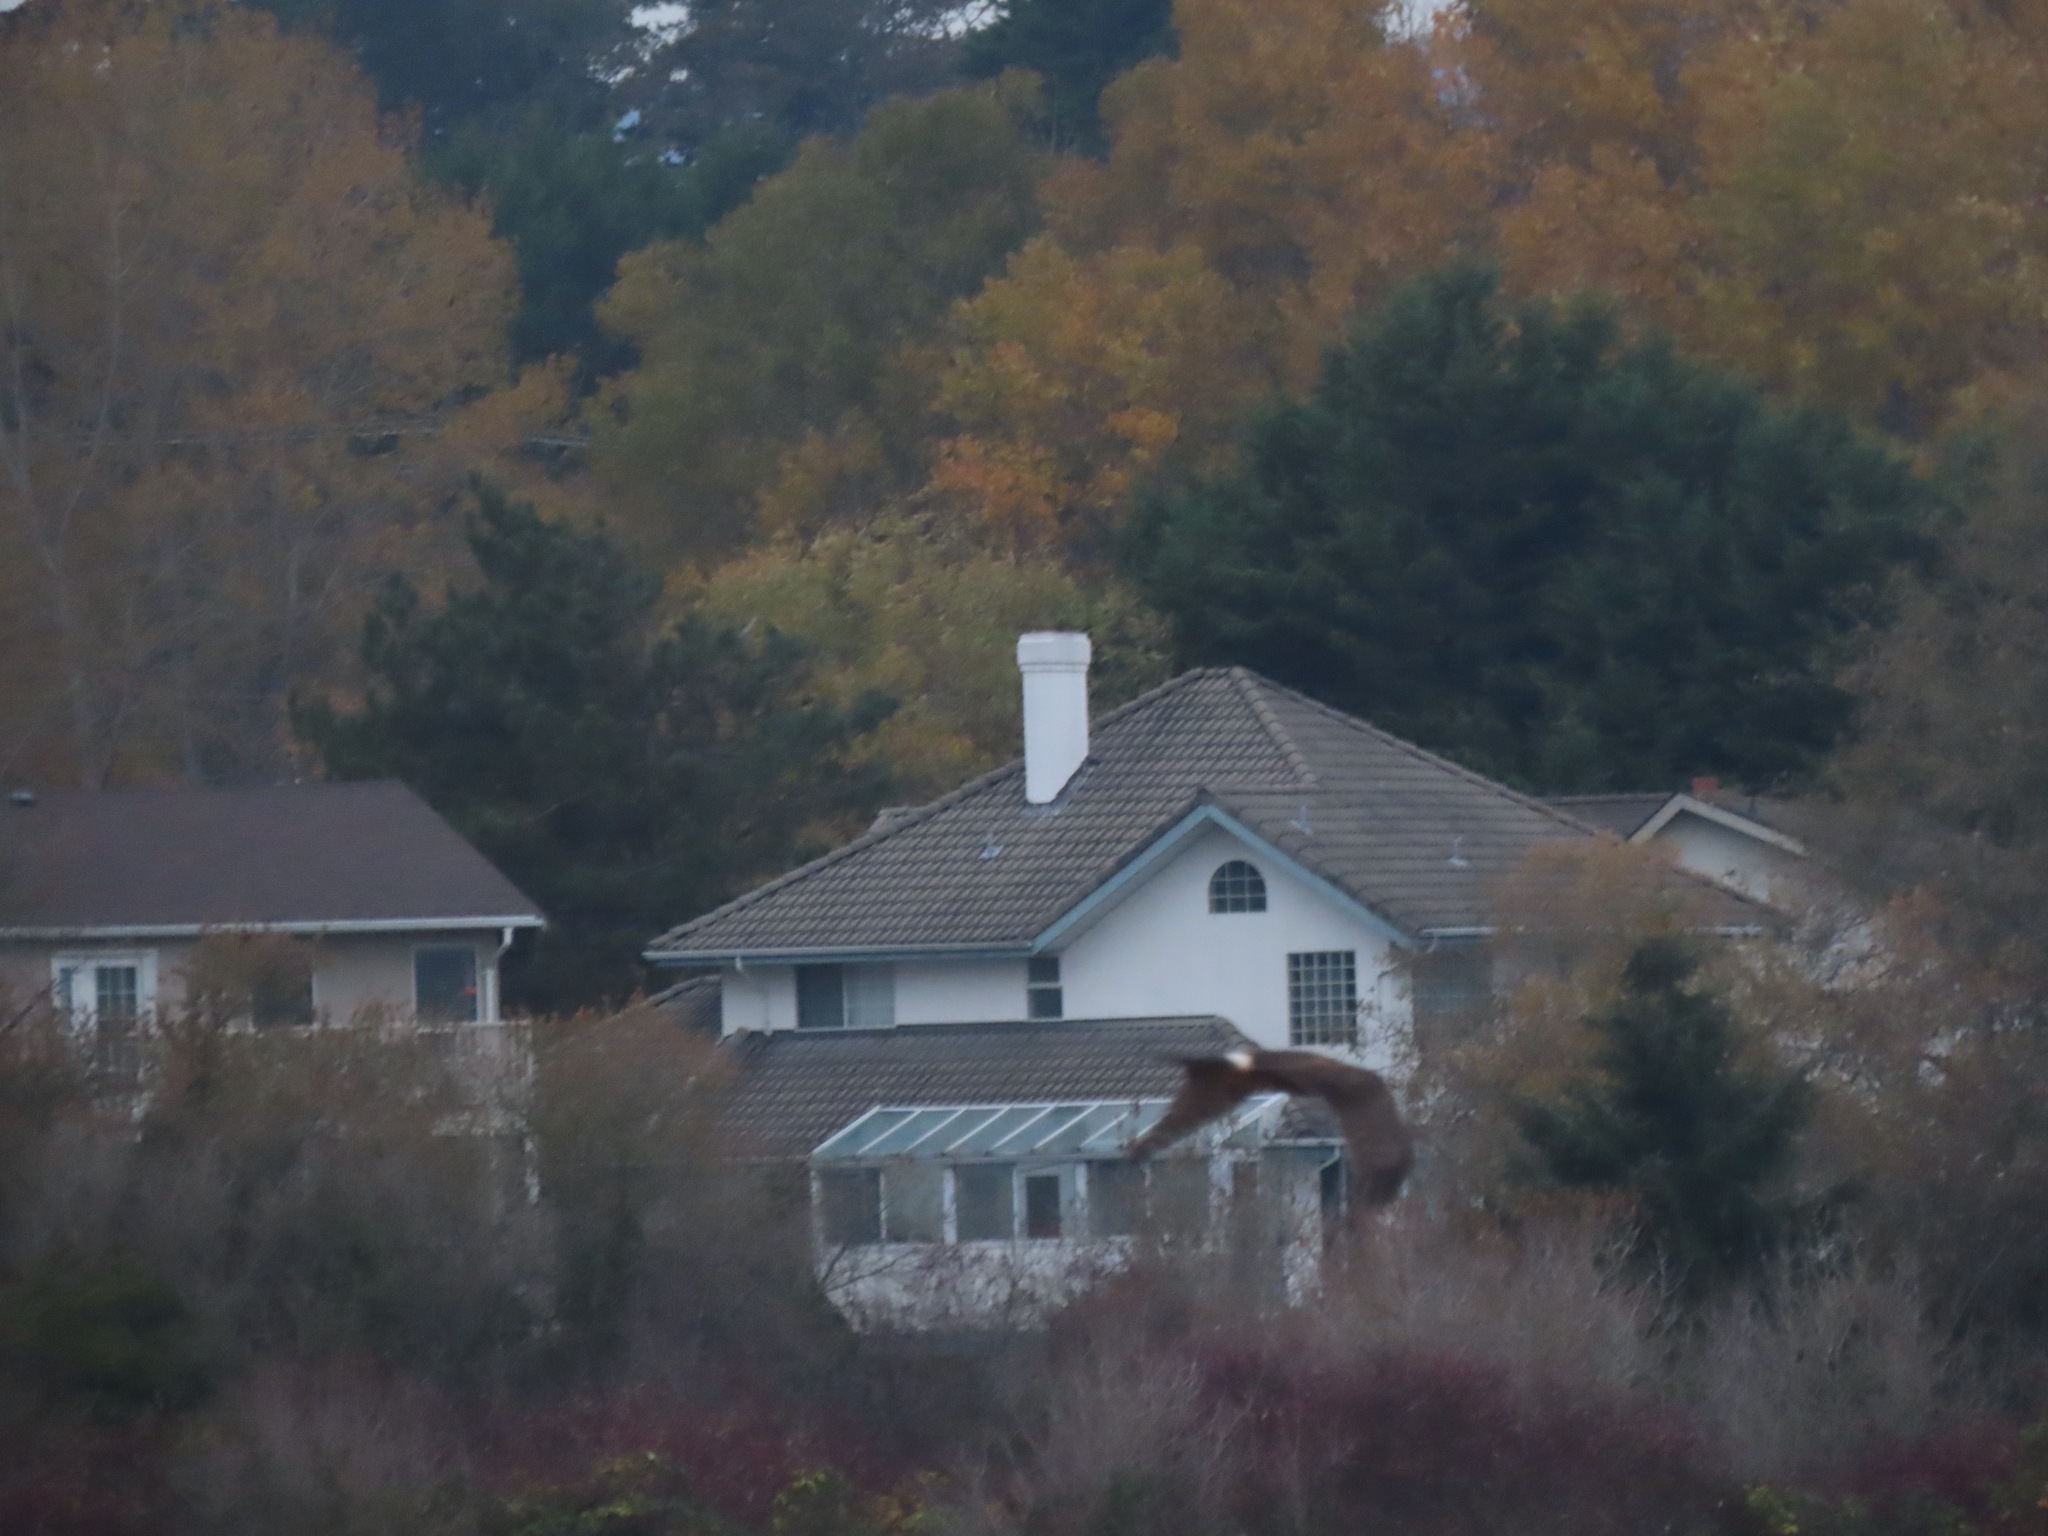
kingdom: Animalia
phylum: Chordata
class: Aves
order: Accipitriformes
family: Accipitridae
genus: Circus
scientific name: Circus cyaneus
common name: Hen harrier
